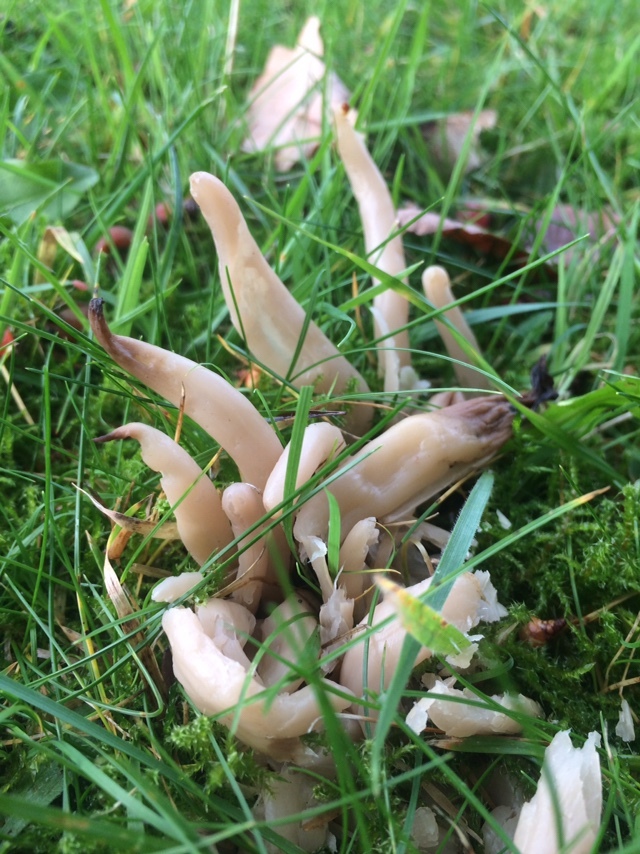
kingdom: Fungi
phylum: Basidiomycota
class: Agaricomycetes
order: Agaricales
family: Clavariaceae
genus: Clavaria
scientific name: Clavaria fumosa
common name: Smoky spindles
